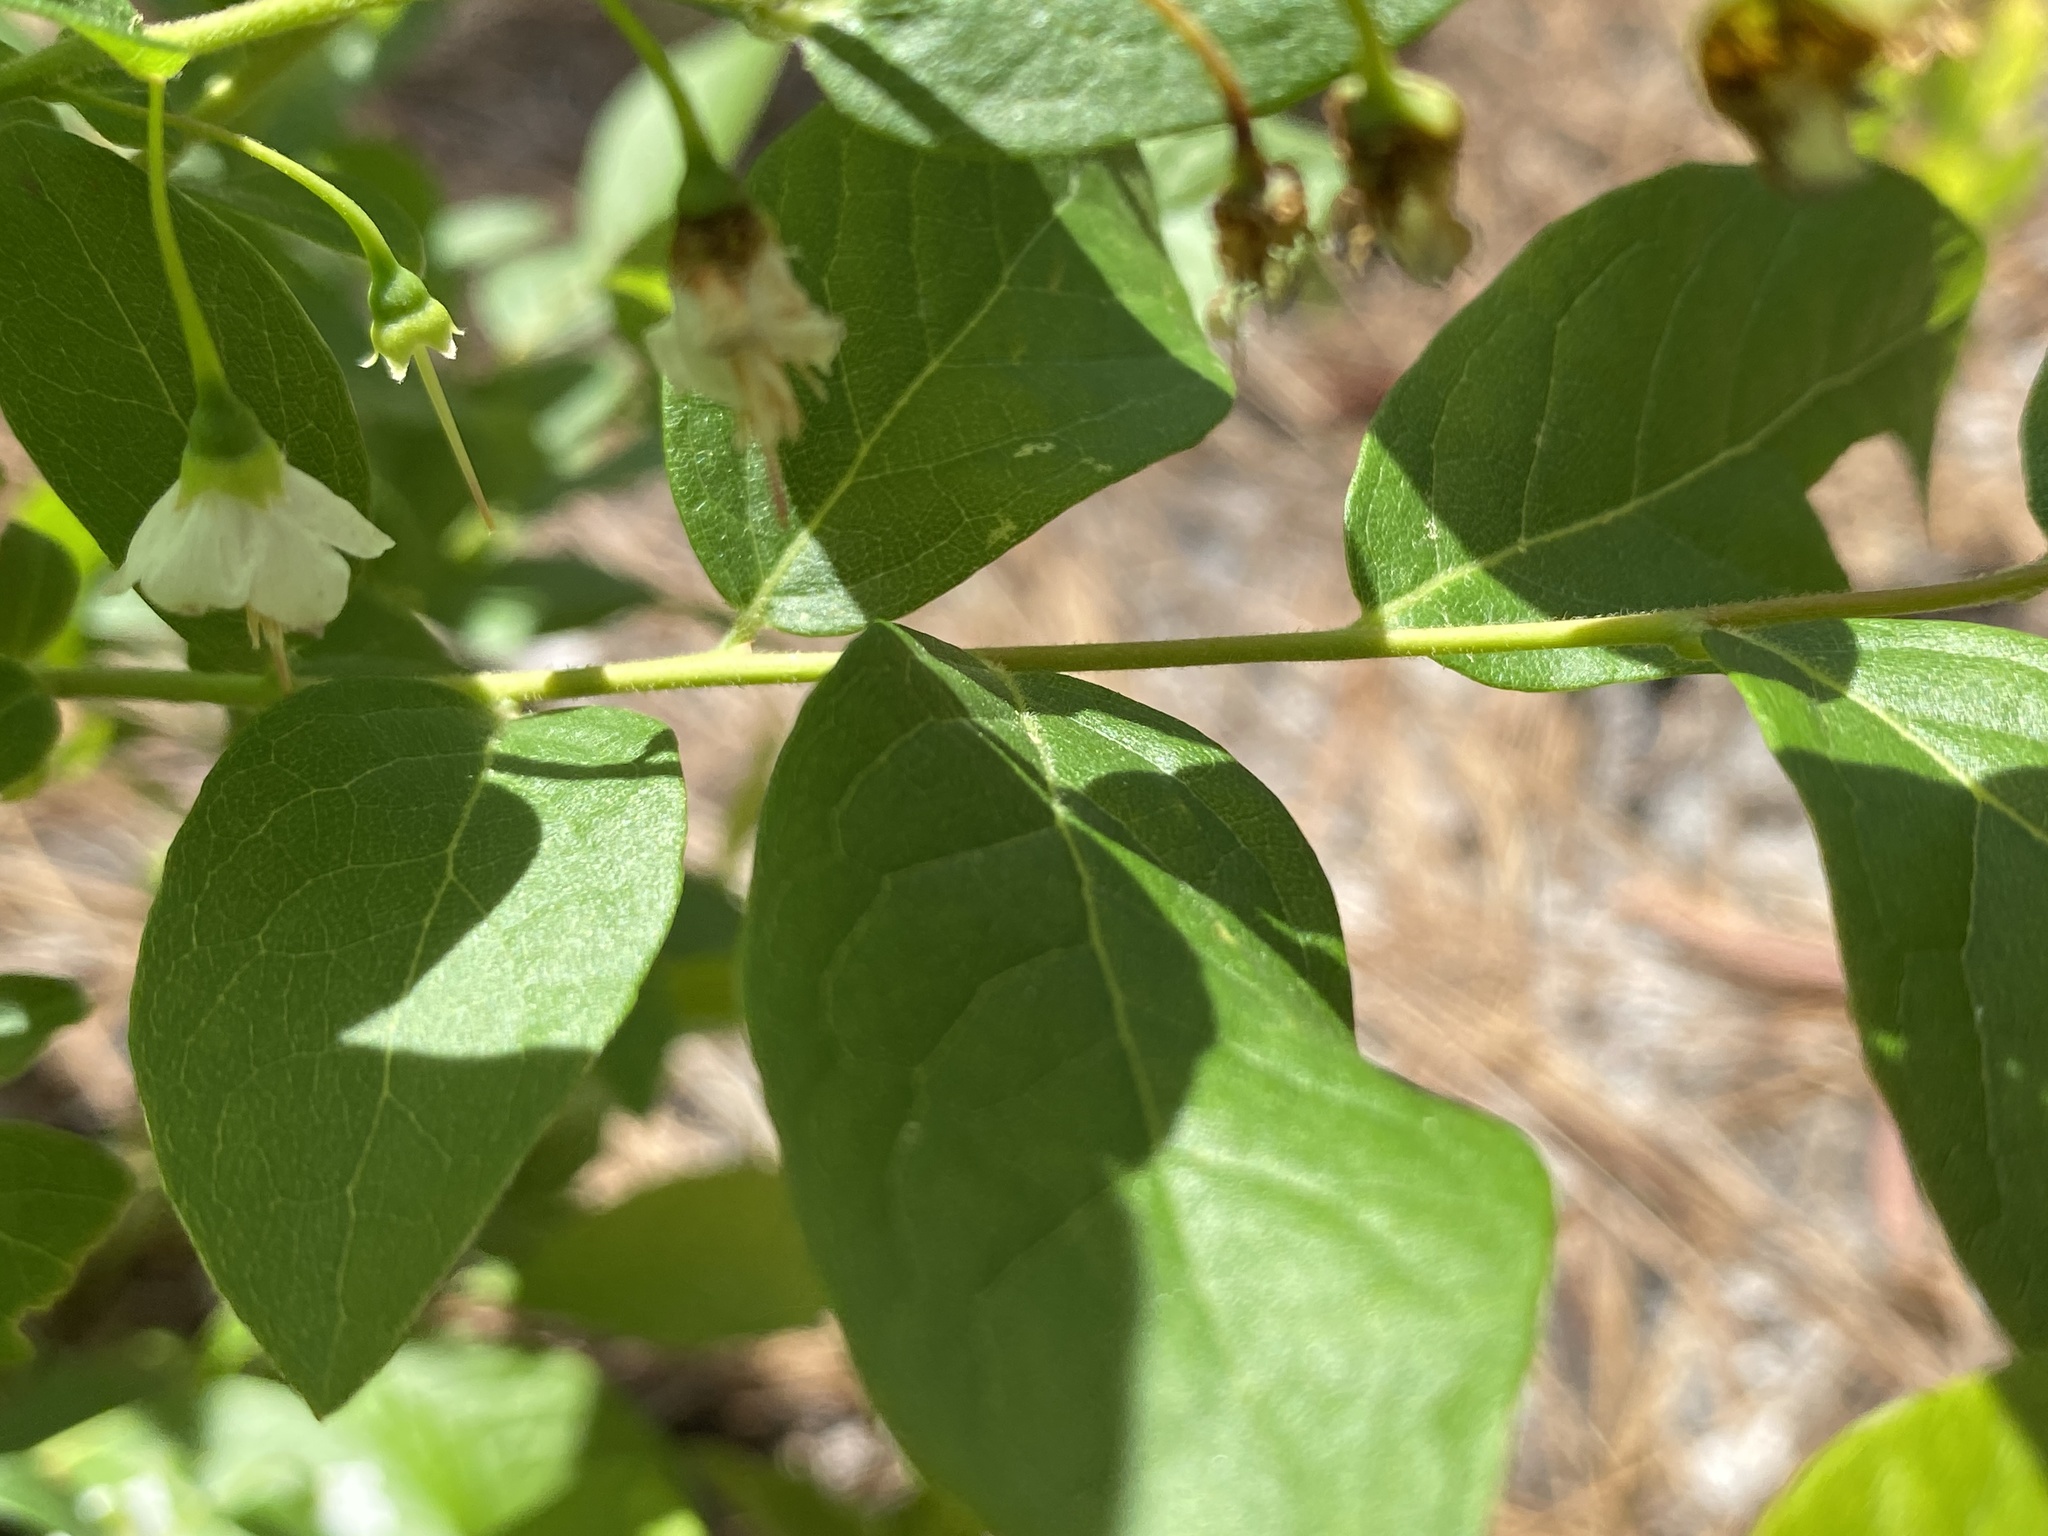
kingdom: Plantae
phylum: Tracheophyta
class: Magnoliopsida
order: Ericales
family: Ericaceae
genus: Vaccinium
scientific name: Vaccinium stamineum
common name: Deerberry
